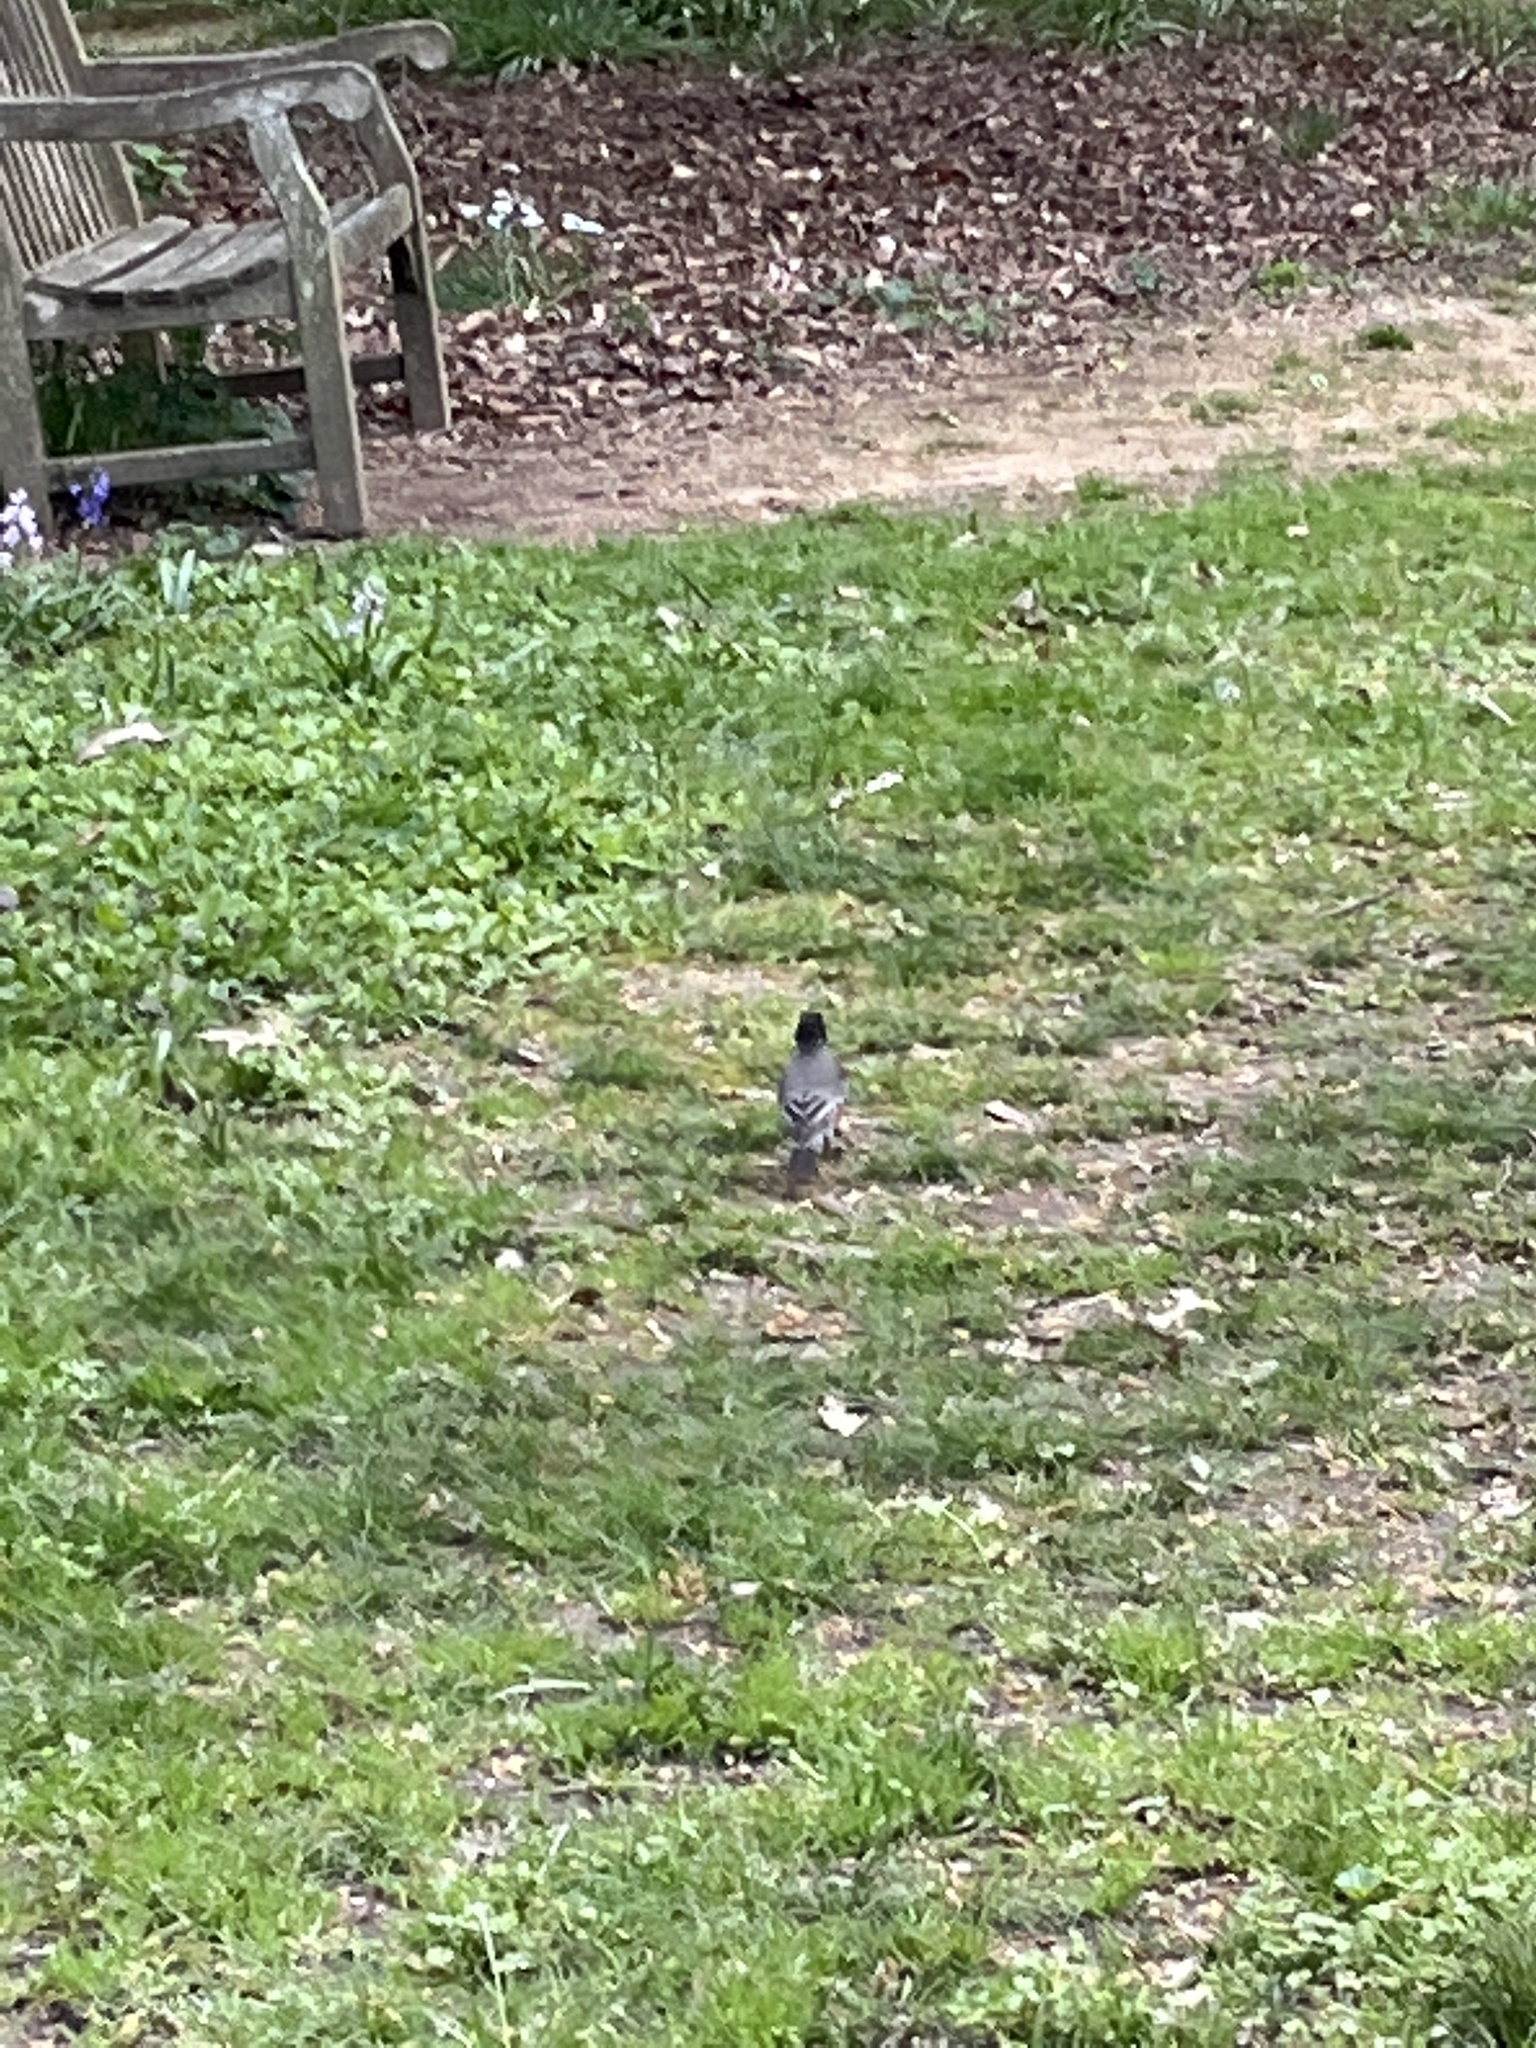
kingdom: Animalia
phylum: Chordata
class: Aves
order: Passeriformes
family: Turdidae
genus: Turdus
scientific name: Turdus migratorius
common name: American robin
